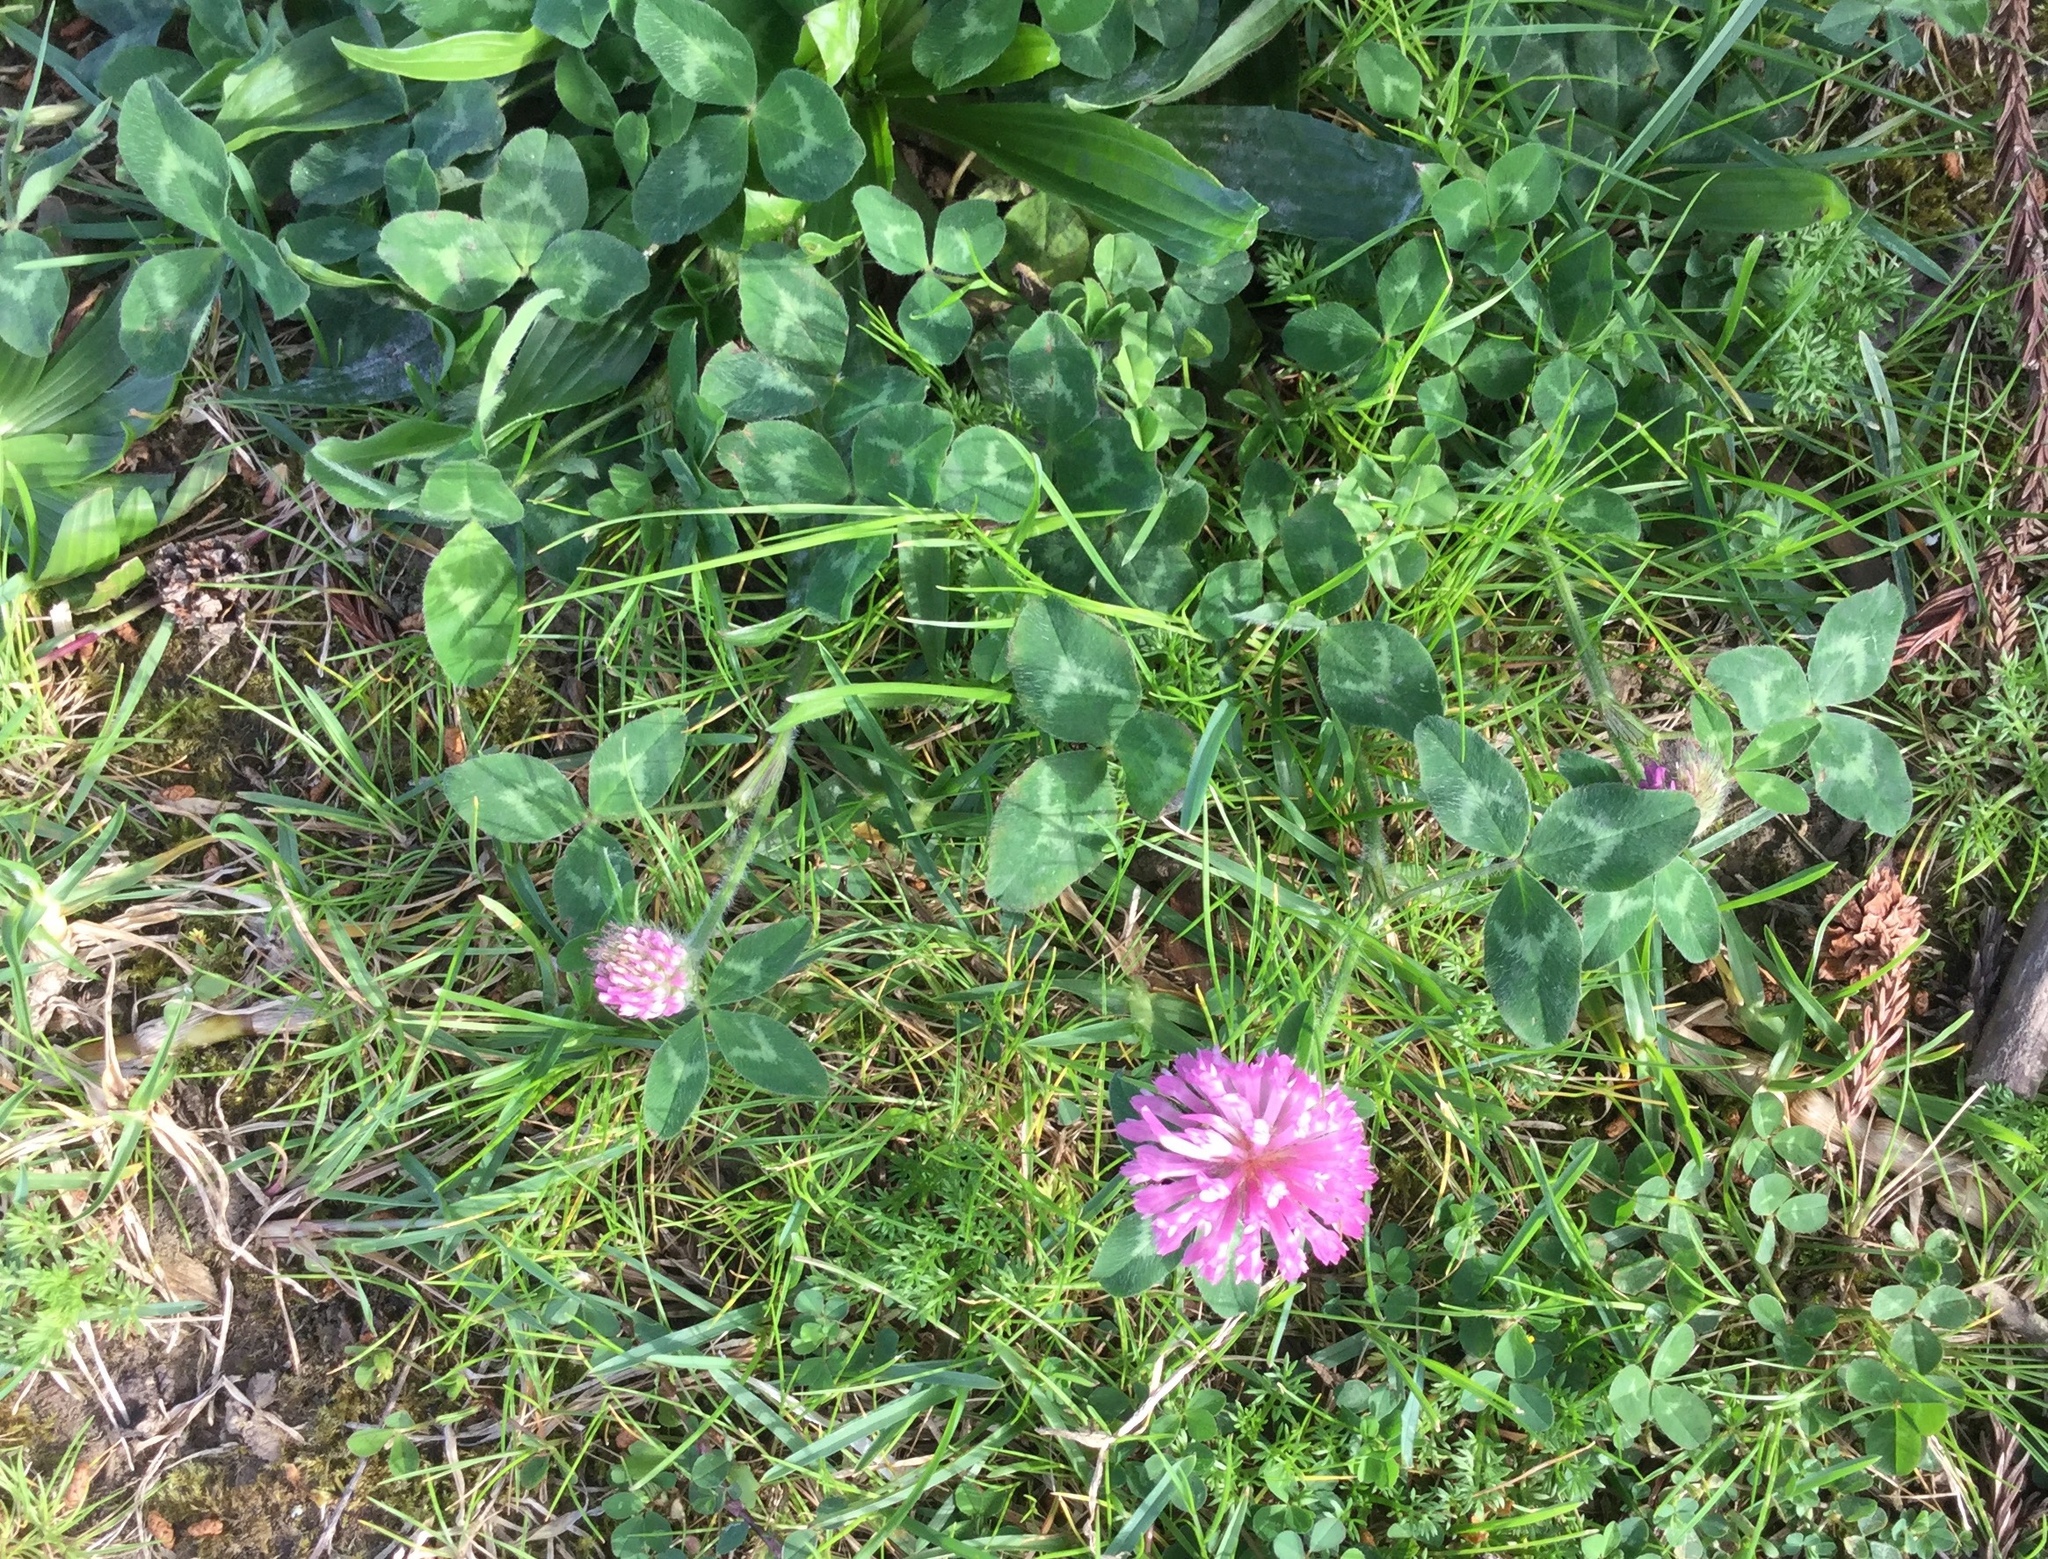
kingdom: Plantae
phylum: Tracheophyta
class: Magnoliopsida
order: Fabales
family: Fabaceae
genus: Trifolium
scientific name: Trifolium pratense
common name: Red clover
